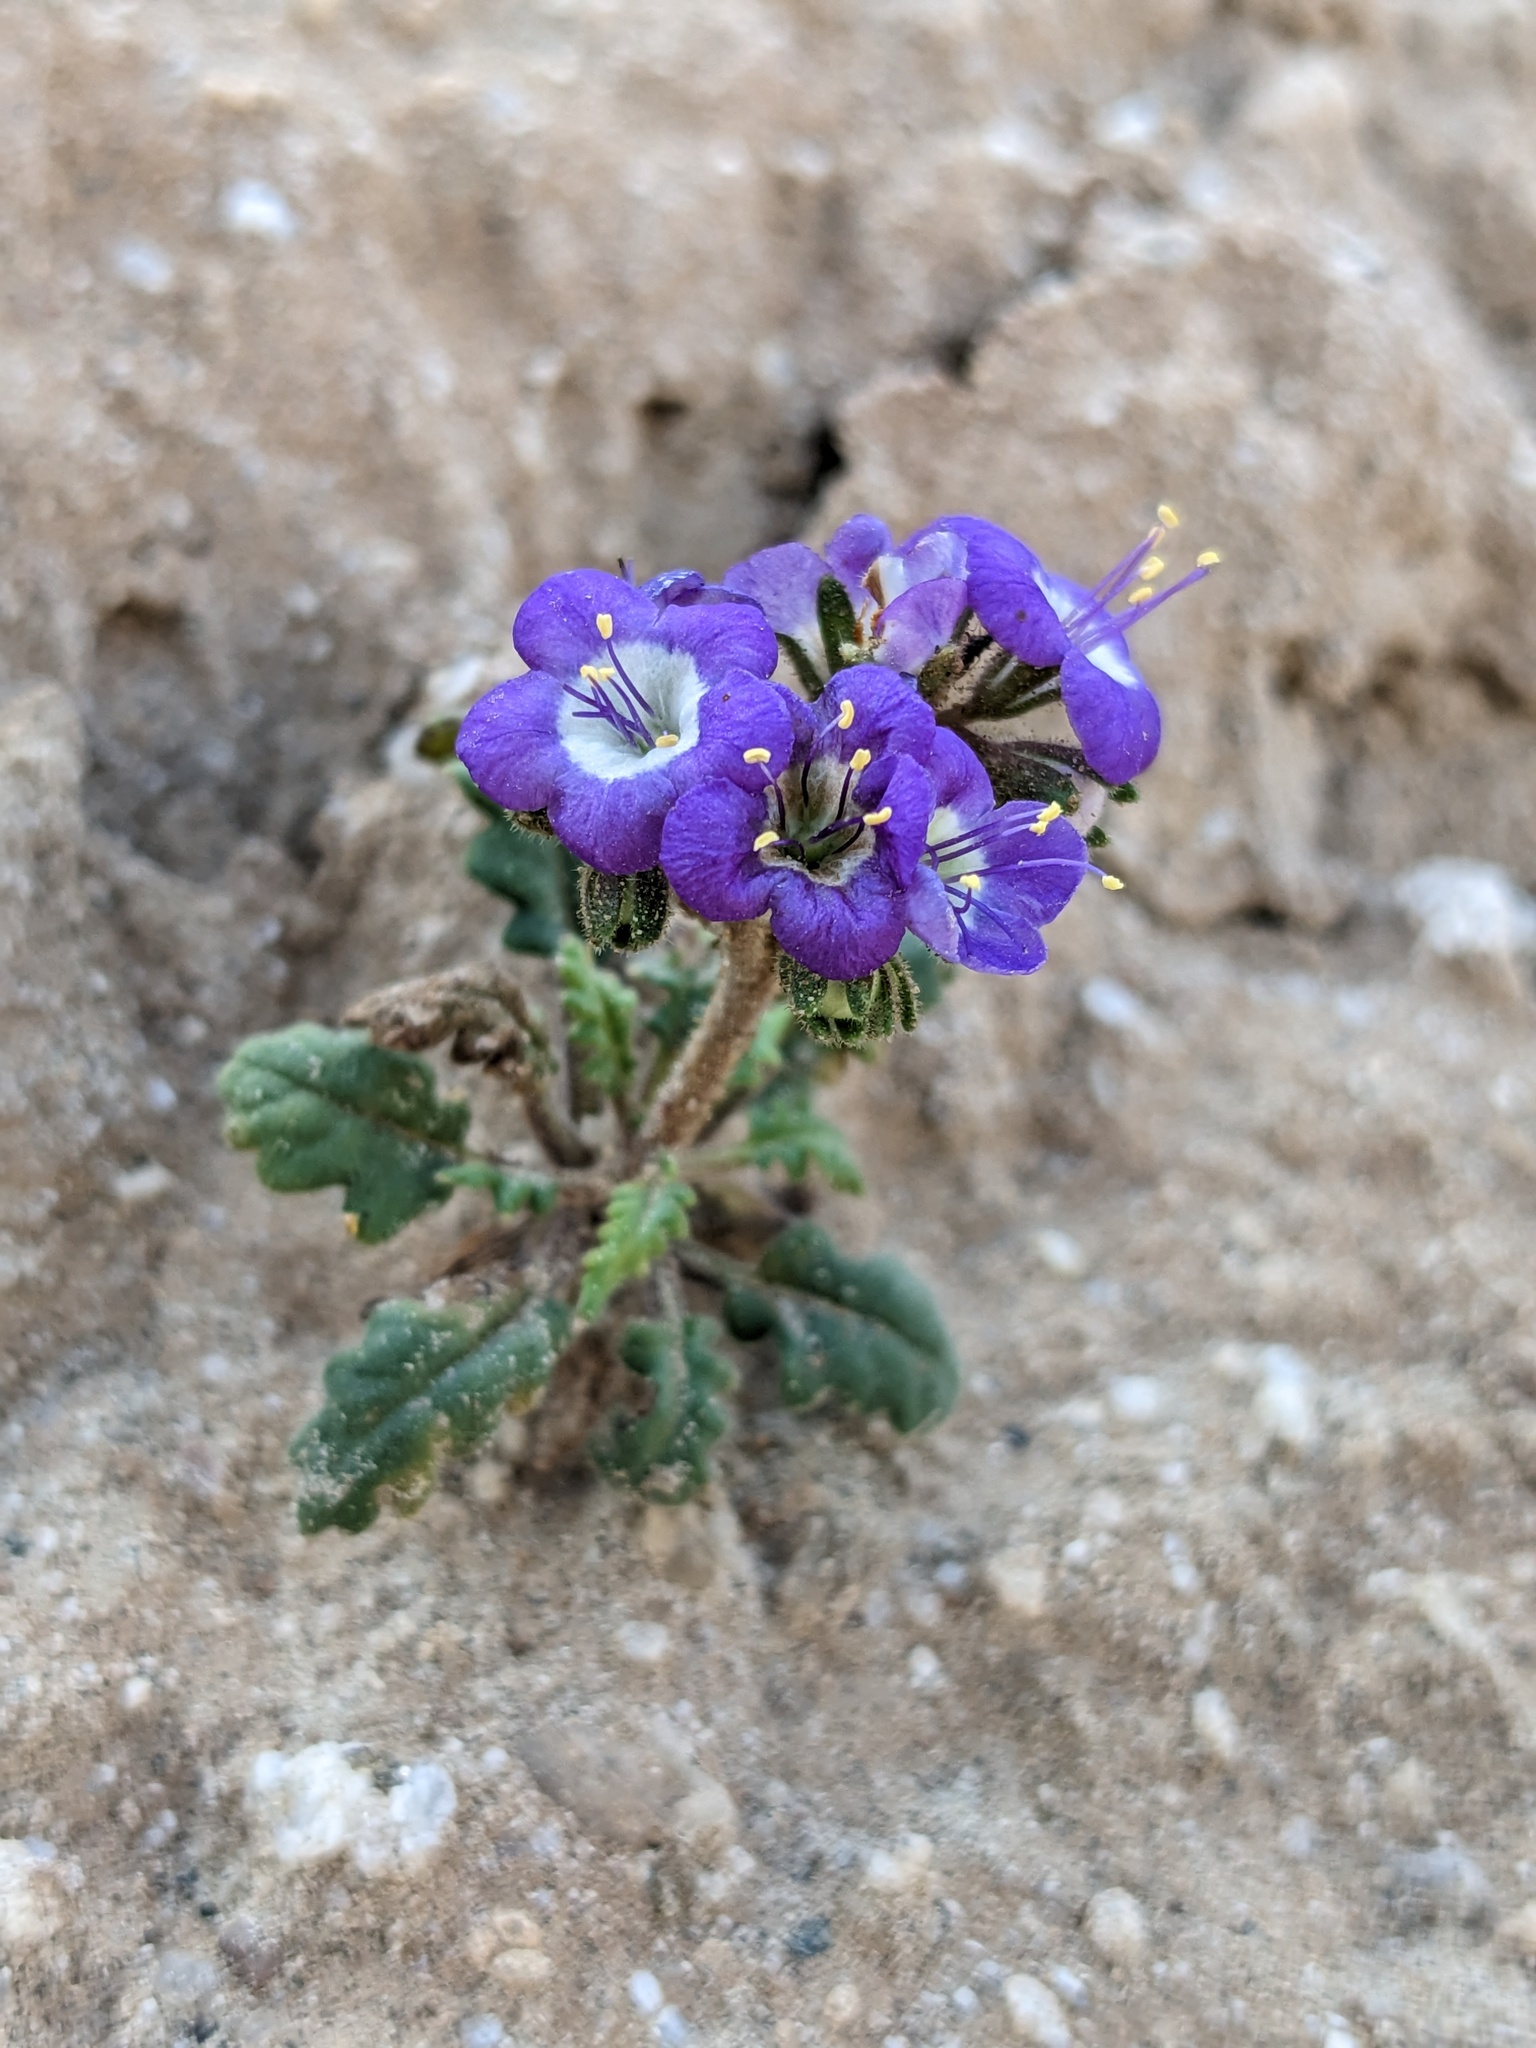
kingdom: Plantae
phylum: Tracheophyta
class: Magnoliopsida
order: Boraginales
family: Hydrophyllaceae
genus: Phacelia
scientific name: Phacelia crenulata
